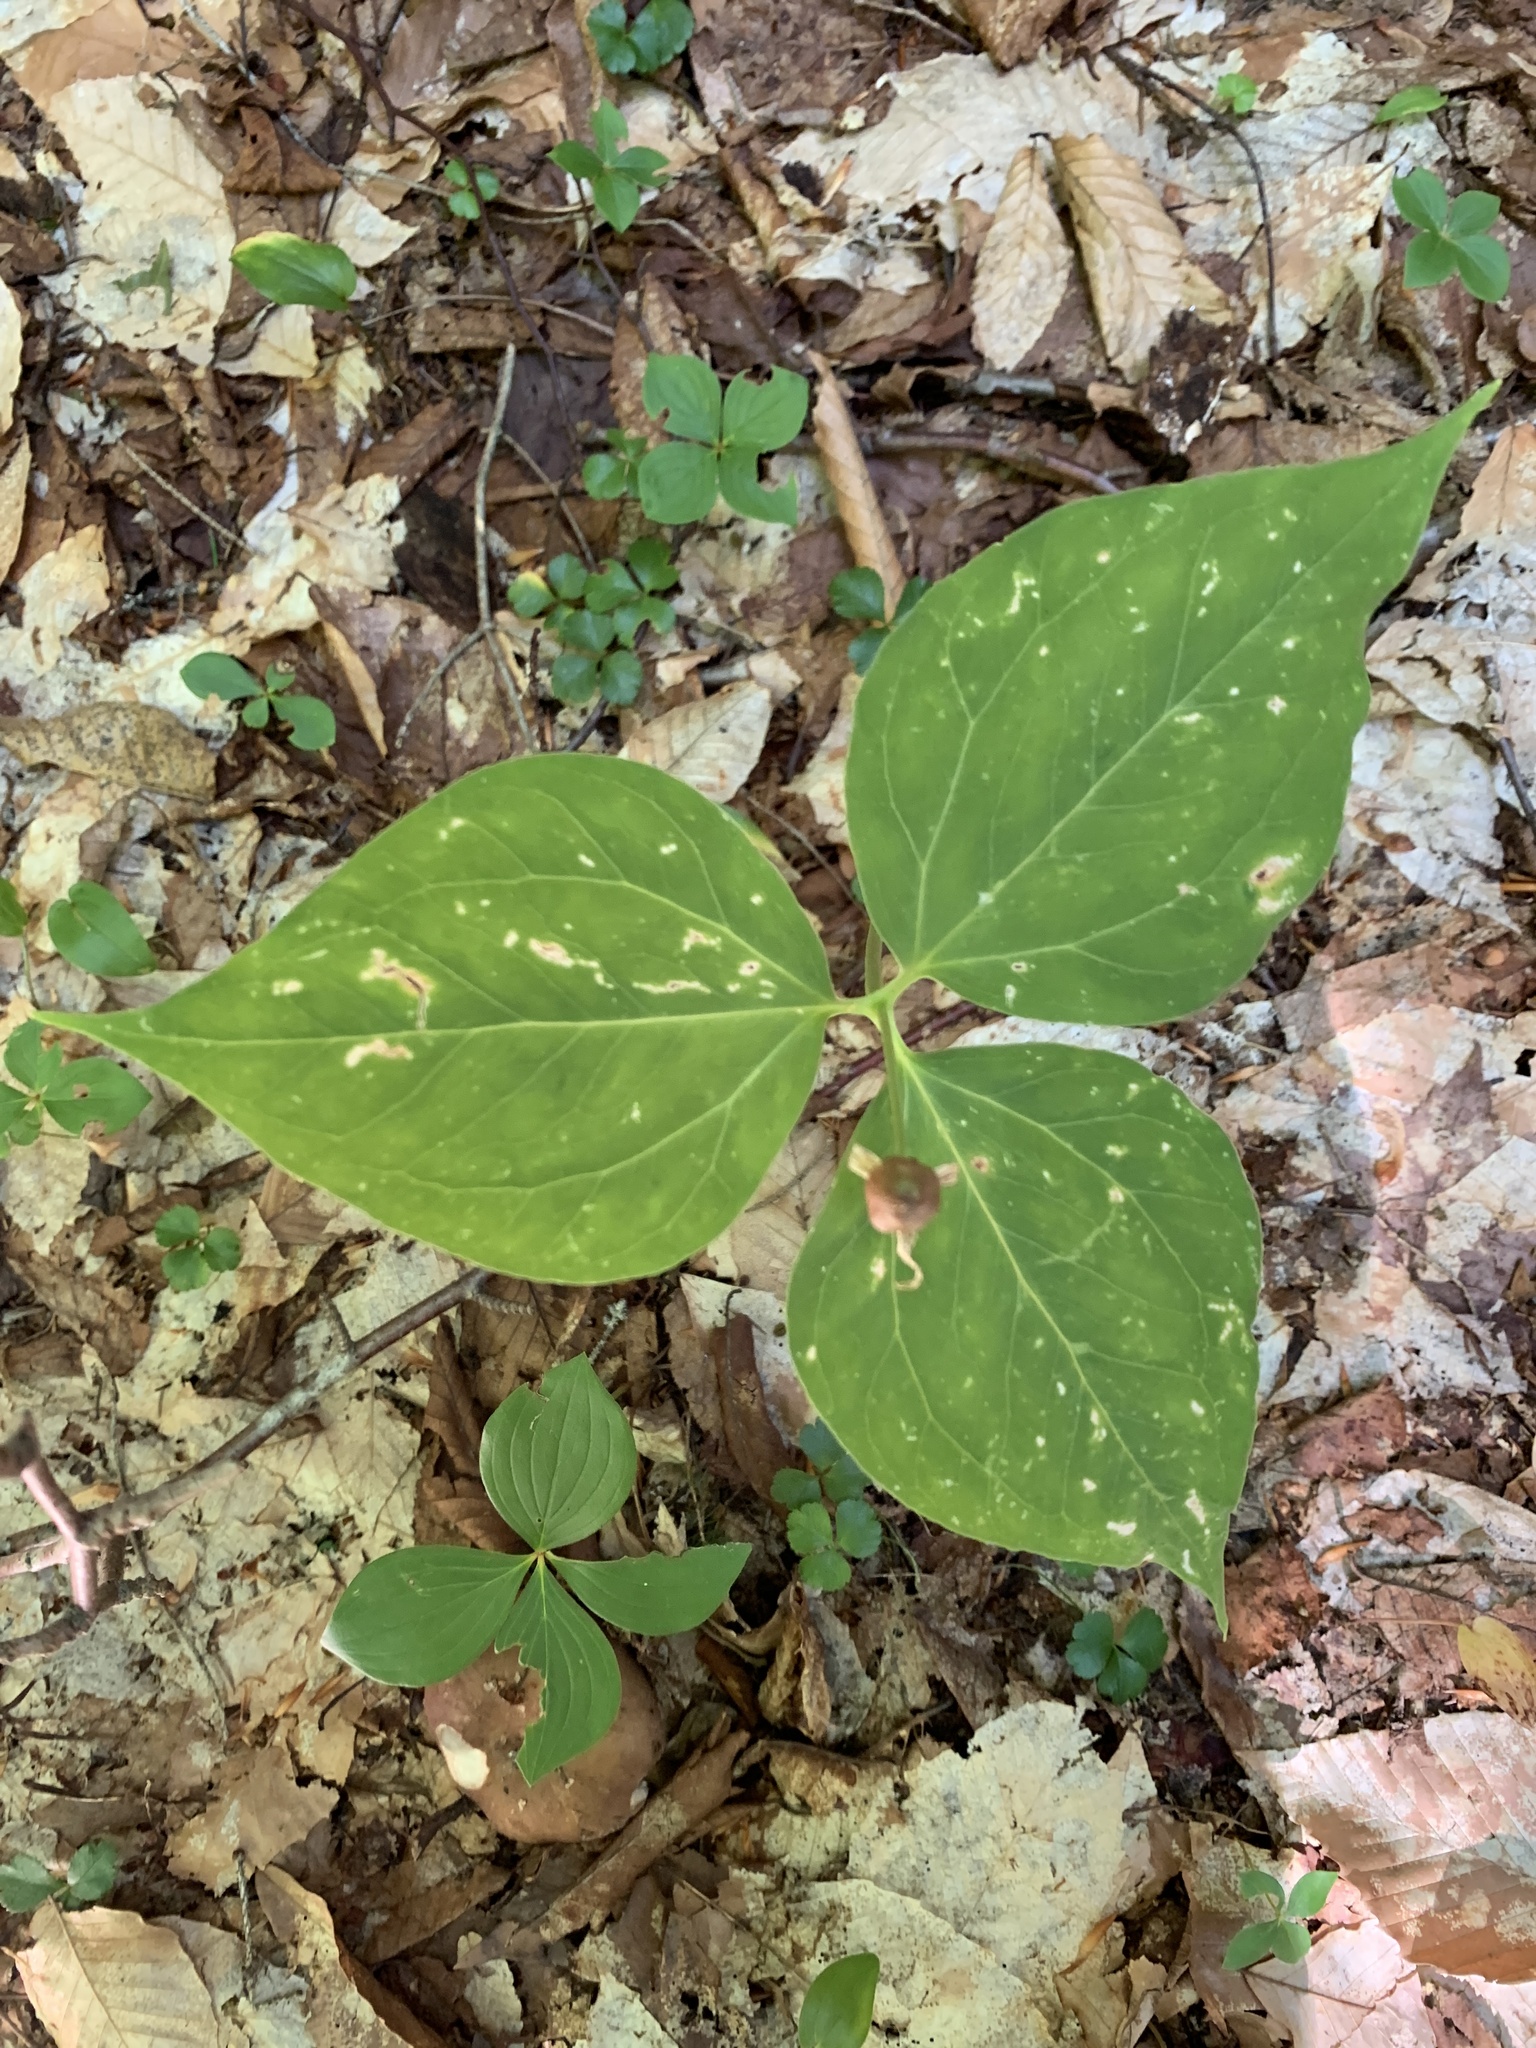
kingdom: Plantae
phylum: Tracheophyta
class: Liliopsida
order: Liliales
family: Melanthiaceae
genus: Trillium
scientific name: Trillium undulatum
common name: Paint trillium
